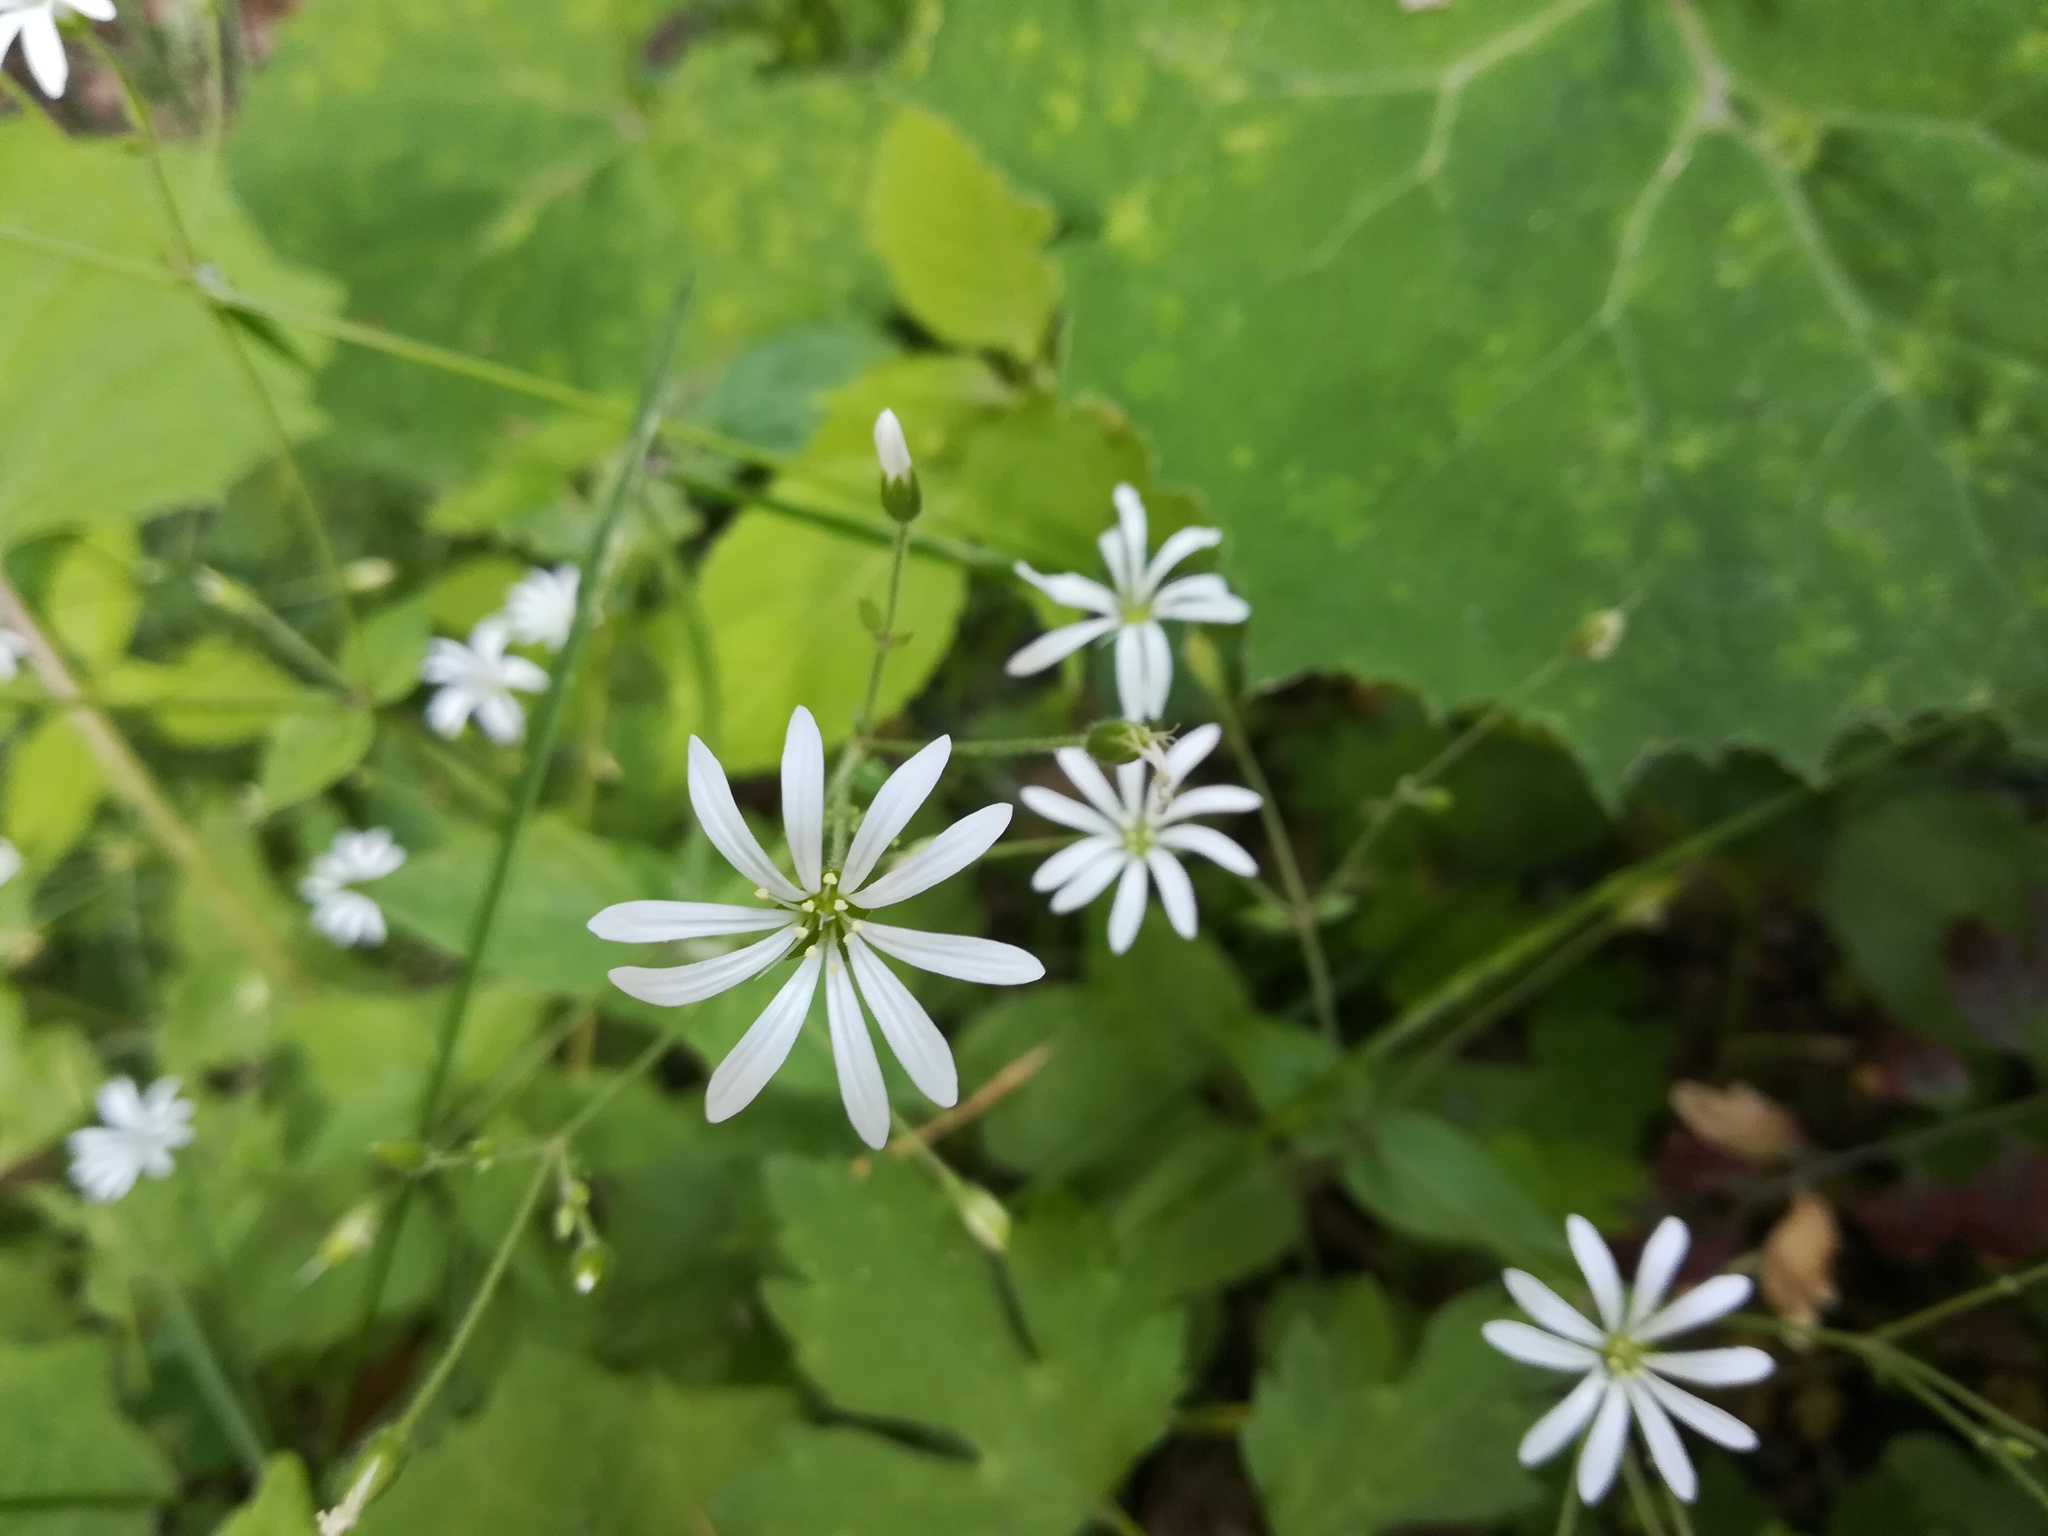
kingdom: Plantae
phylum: Tracheophyta
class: Magnoliopsida
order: Caryophyllales
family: Caryophyllaceae
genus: Stellaria
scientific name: Stellaria nemorum
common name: Wood stitchwort
